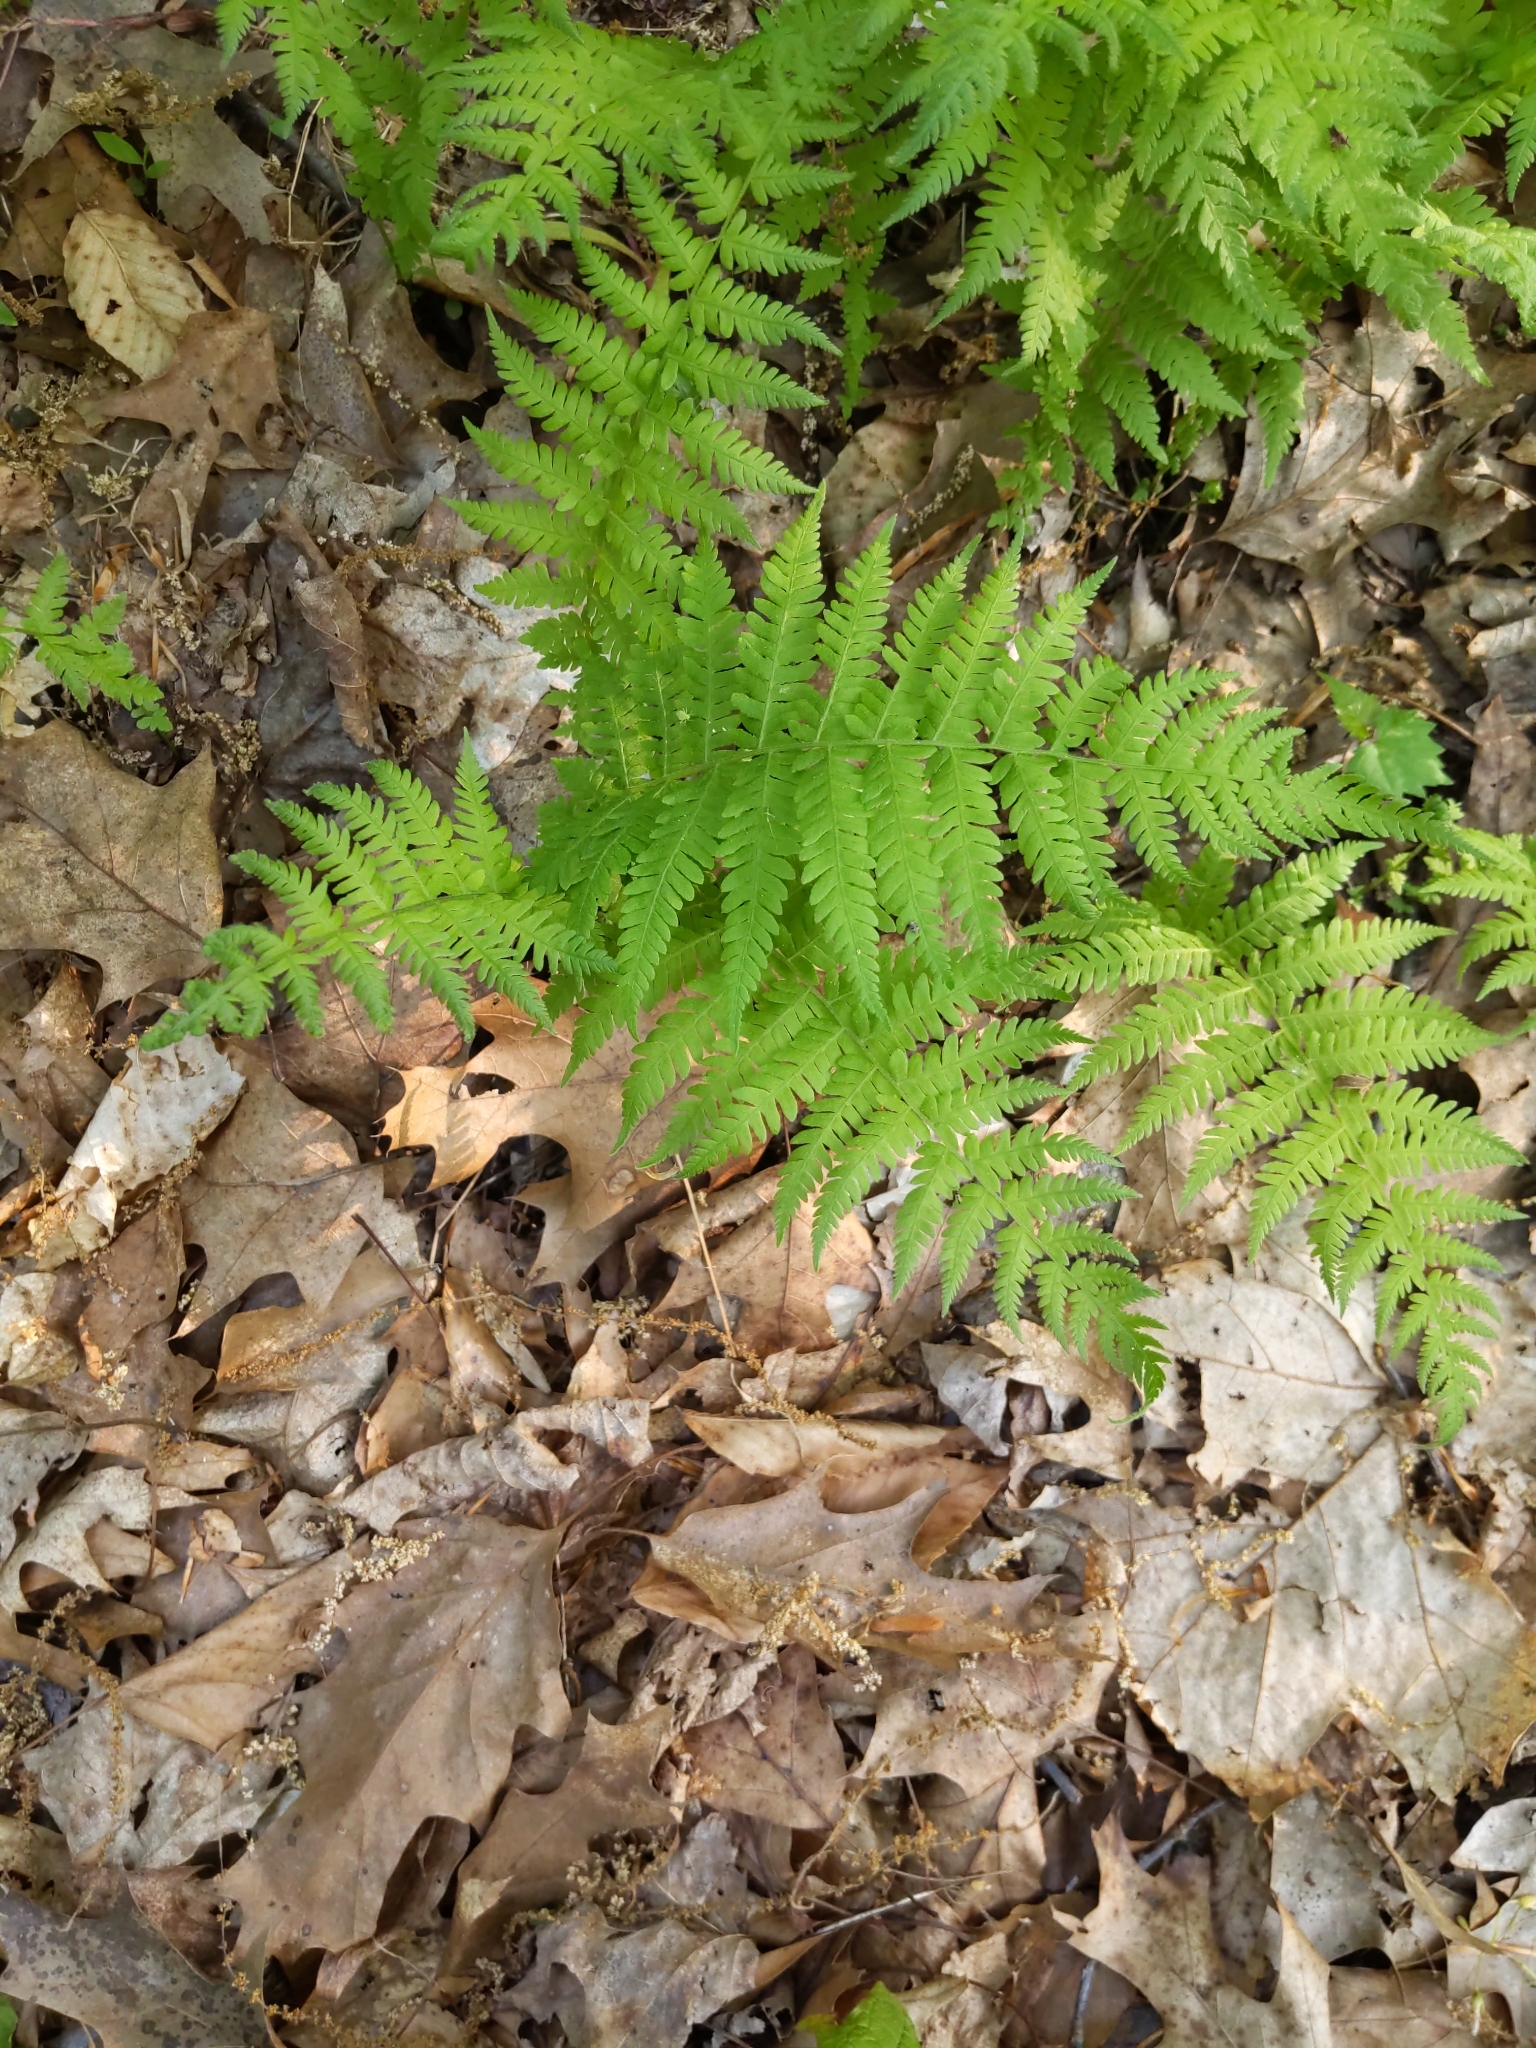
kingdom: Plantae
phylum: Tracheophyta
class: Polypodiopsida
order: Polypodiales
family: Thelypteridaceae
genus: Amauropelta
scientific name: Amauropelta noveboracensis
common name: New york fern
